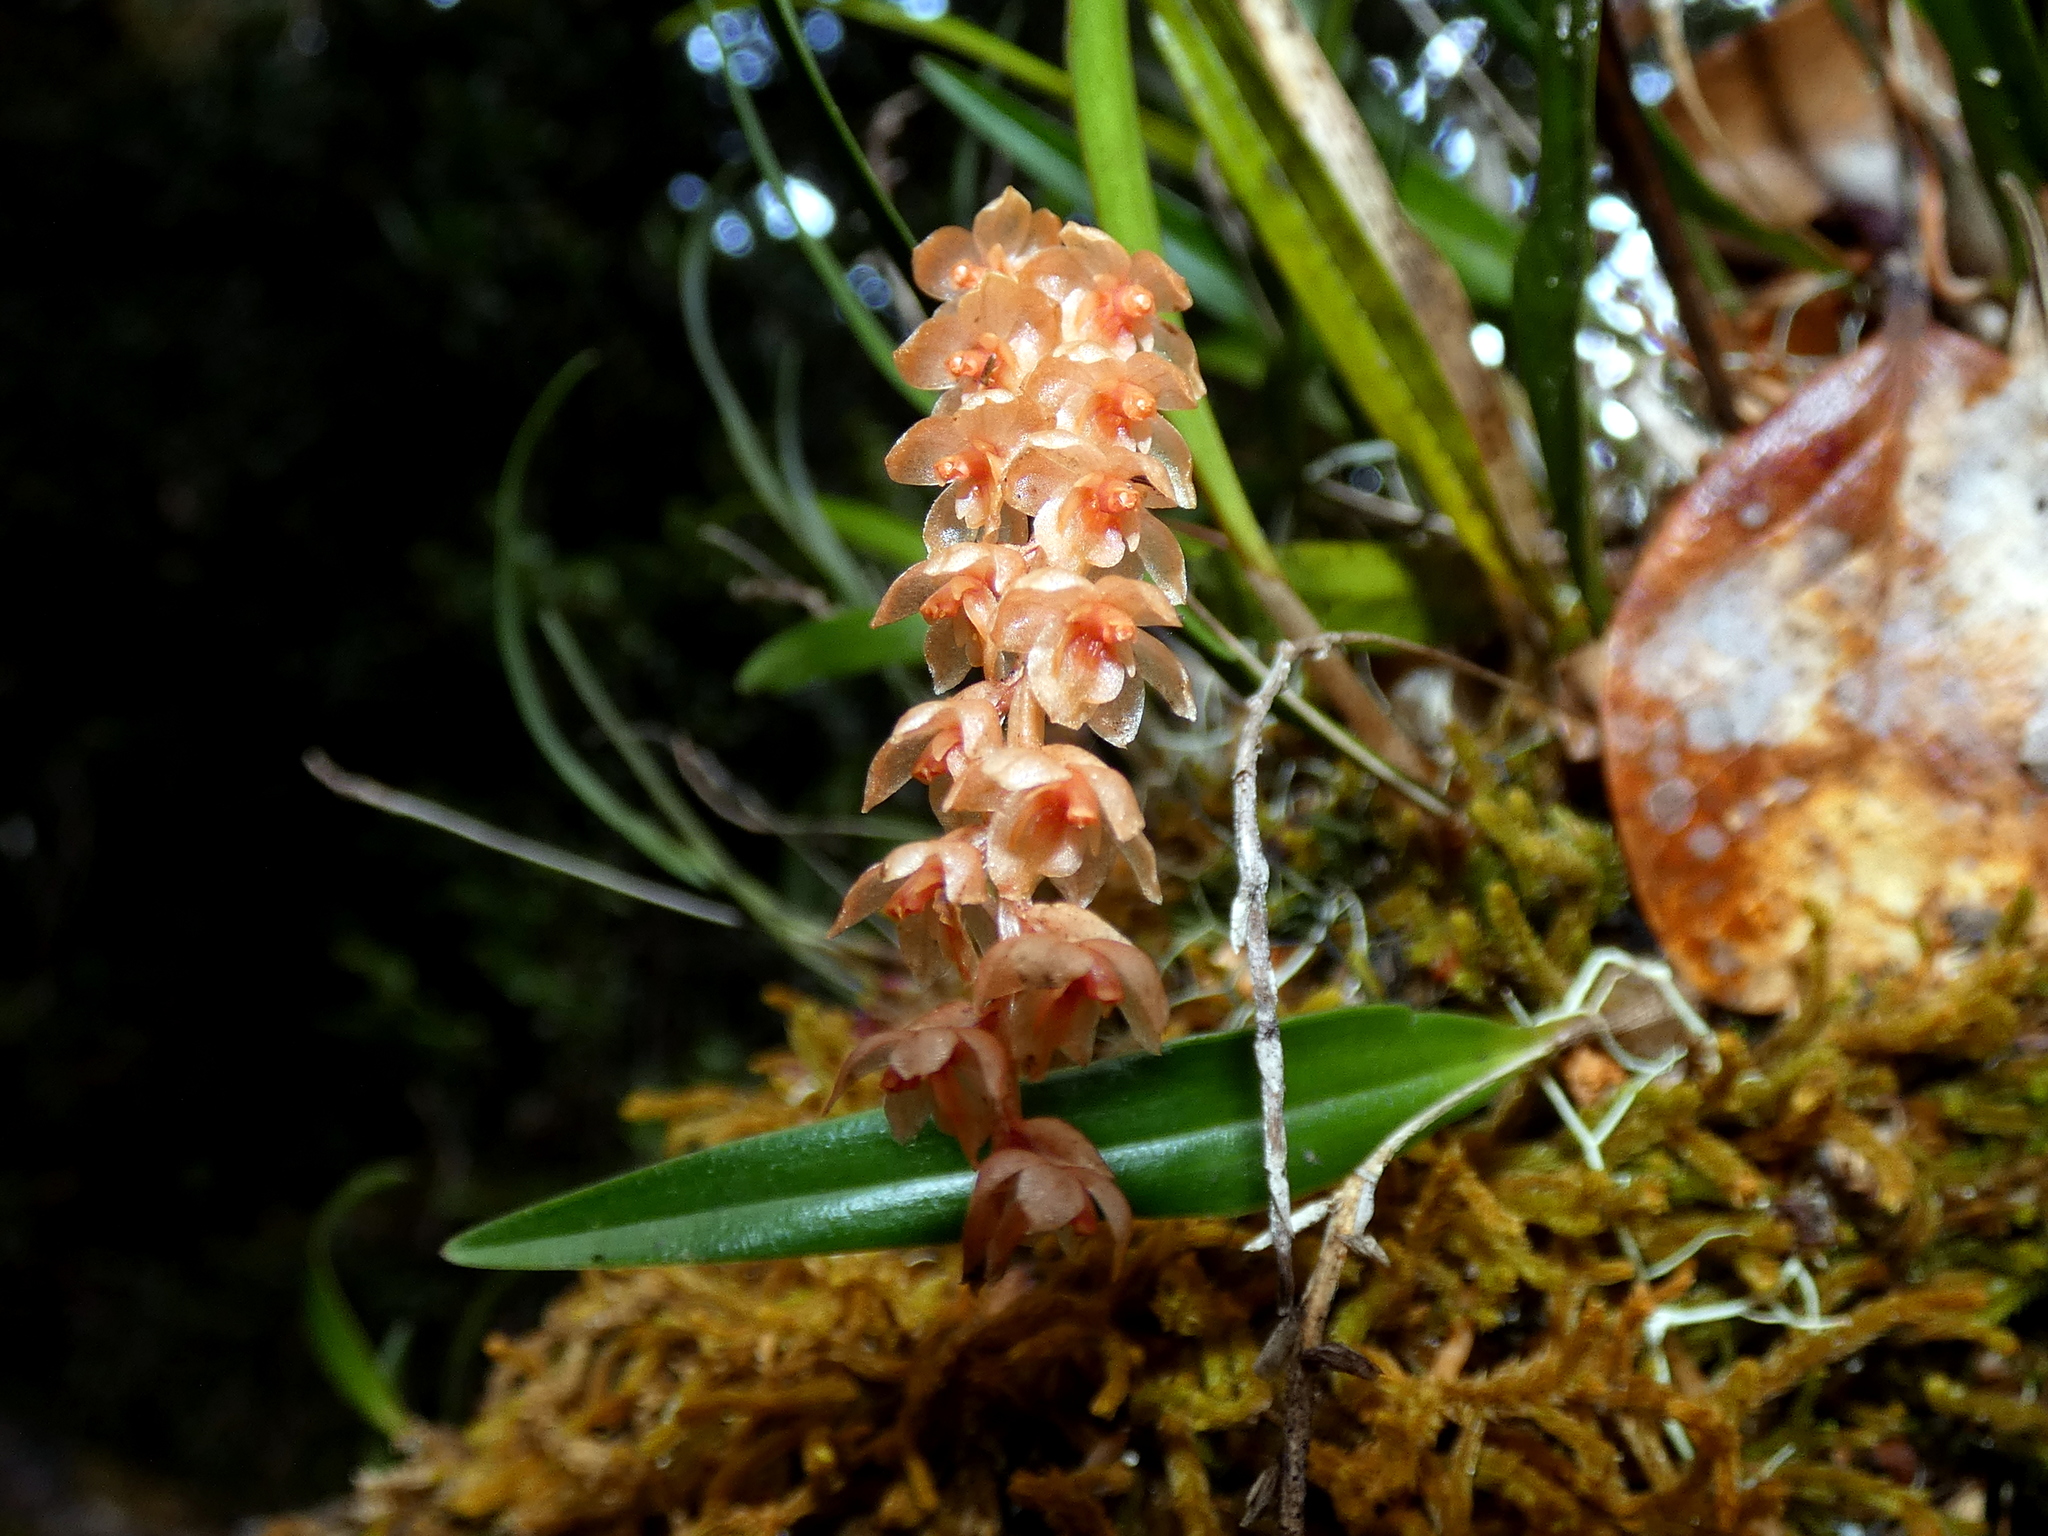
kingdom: Plantae
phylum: Tracheophyta
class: Liliopsida
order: Asparagales
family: Orchidaceae
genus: Coelogyne
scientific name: Coelogyne pterogyne
